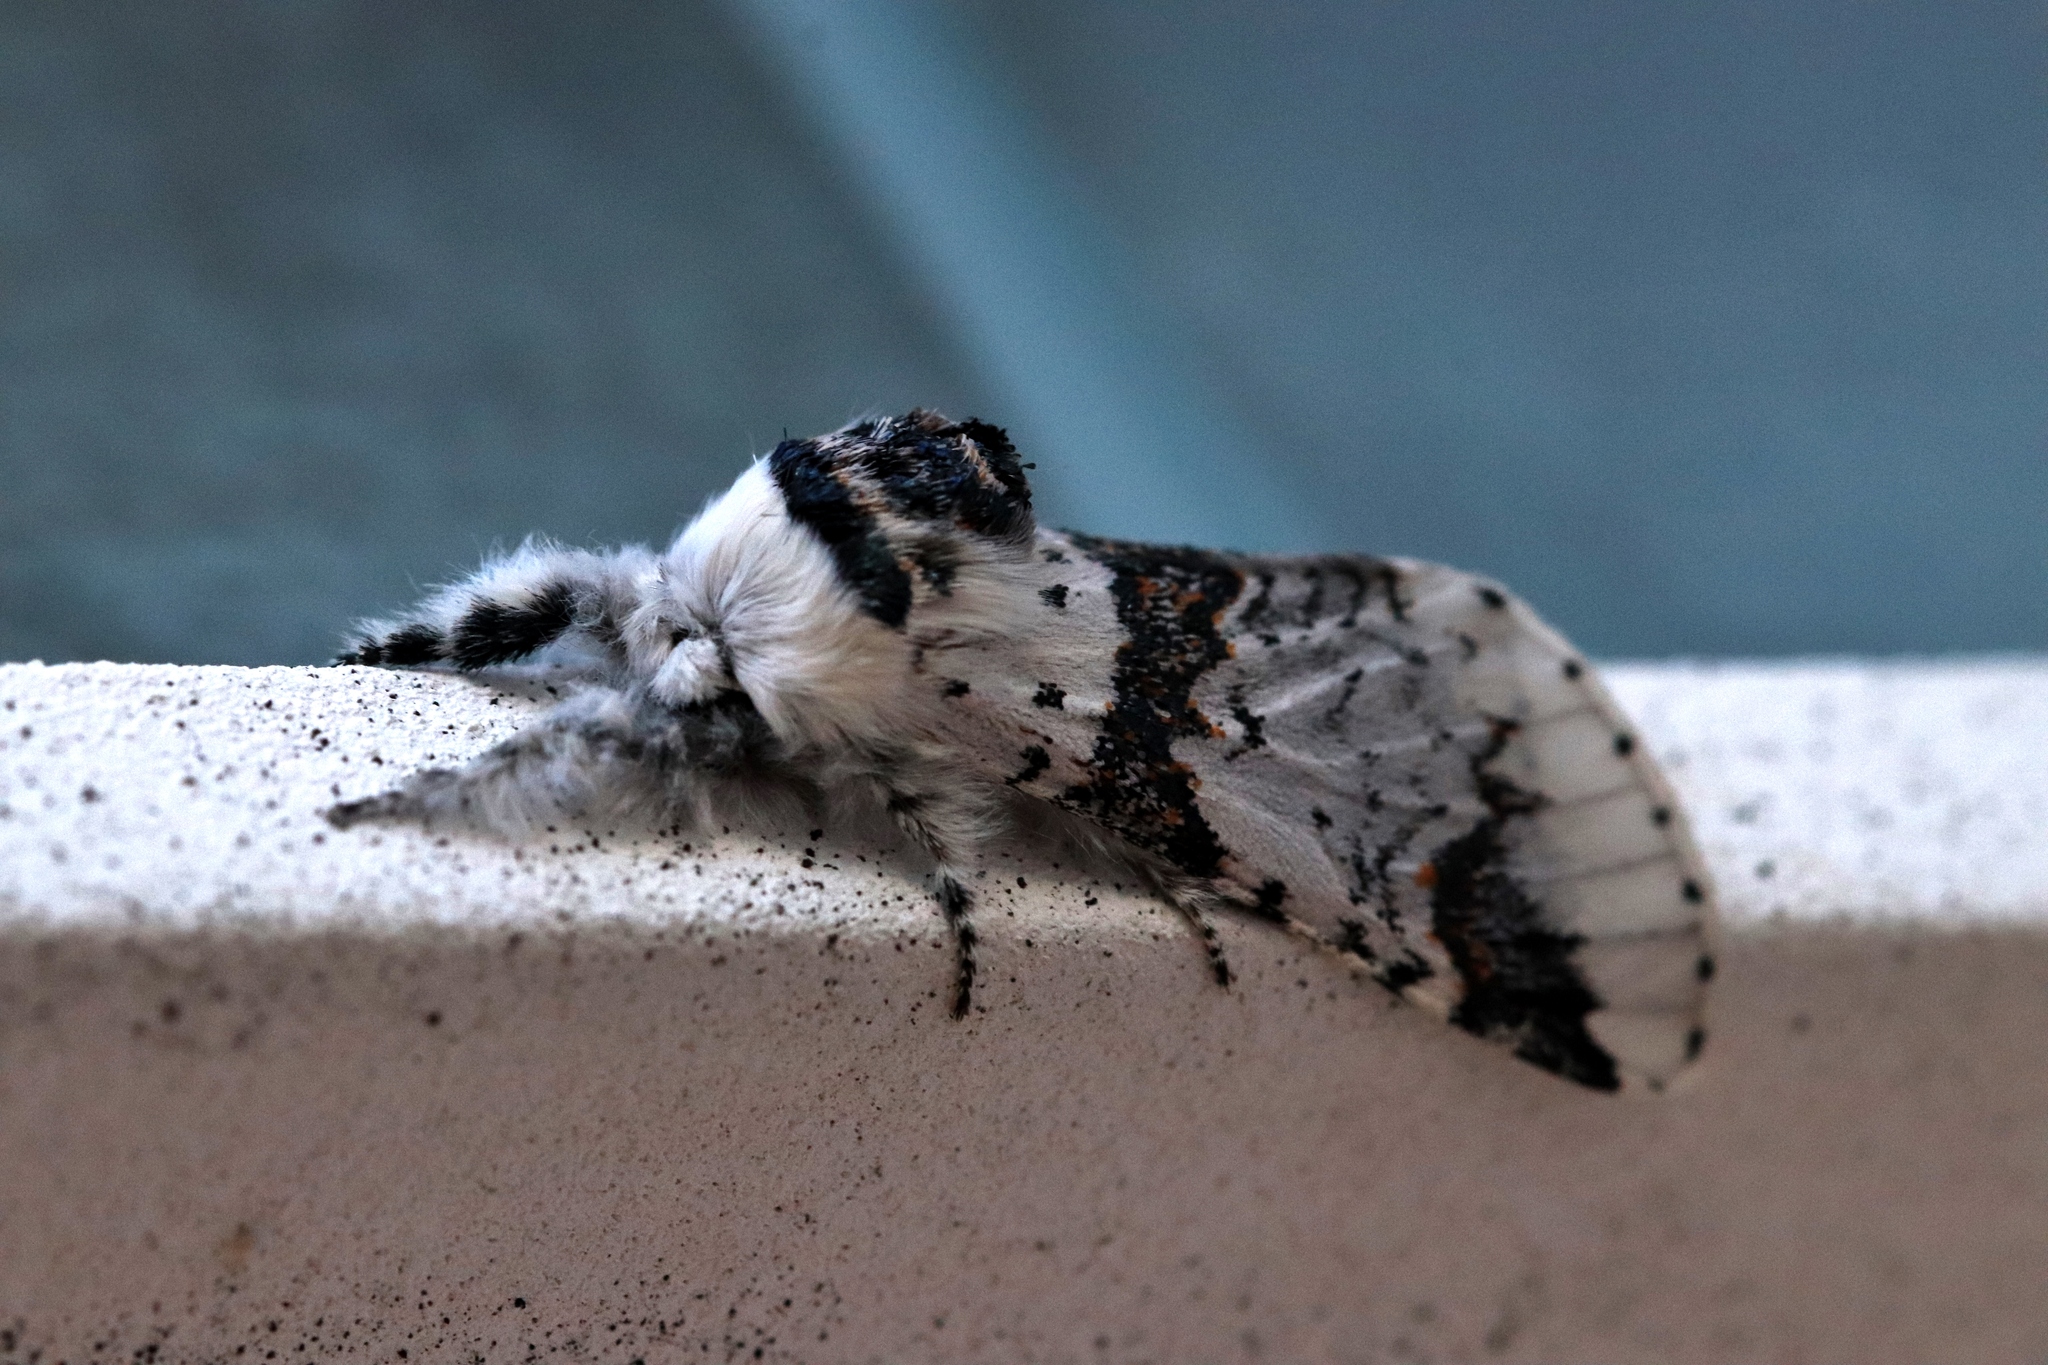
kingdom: Animalia
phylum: Arthropoda
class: Insecta
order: Lepidoptera
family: Notodontidae
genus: Furcula
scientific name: Furcula scolopendrina
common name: Zigzag furcula moth
